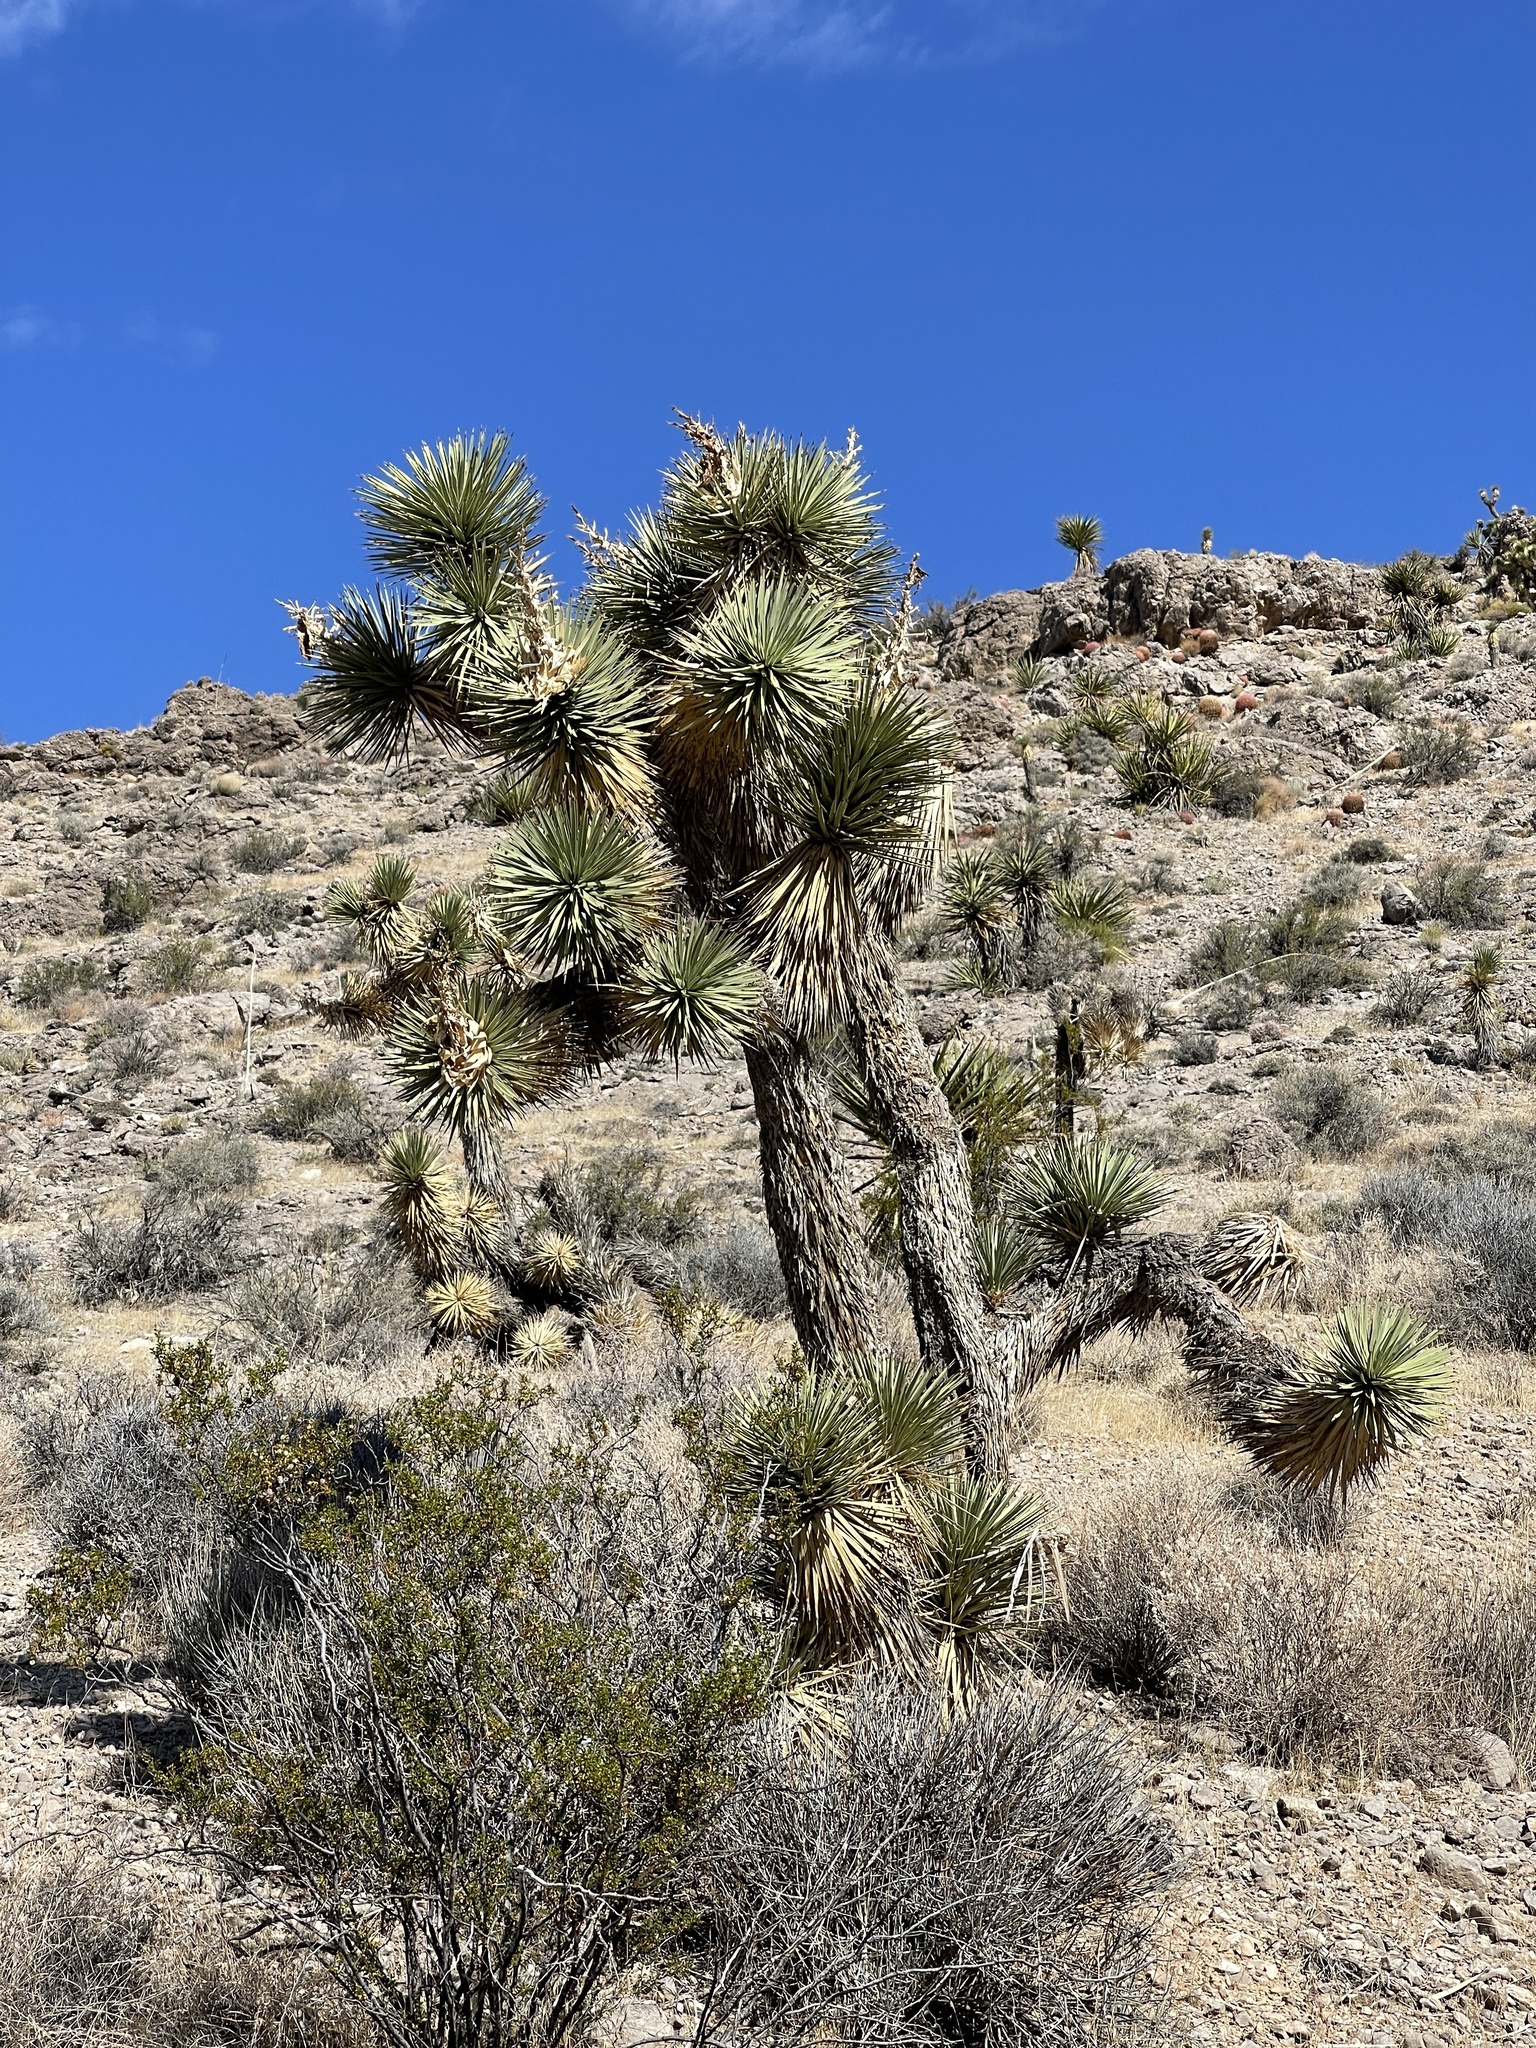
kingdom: Plantae
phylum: Tracheophyta
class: Liliopsida
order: Asparagales
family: Asparagaceae
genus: Yucca
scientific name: Yucca brevifolia
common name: Joshua tree
